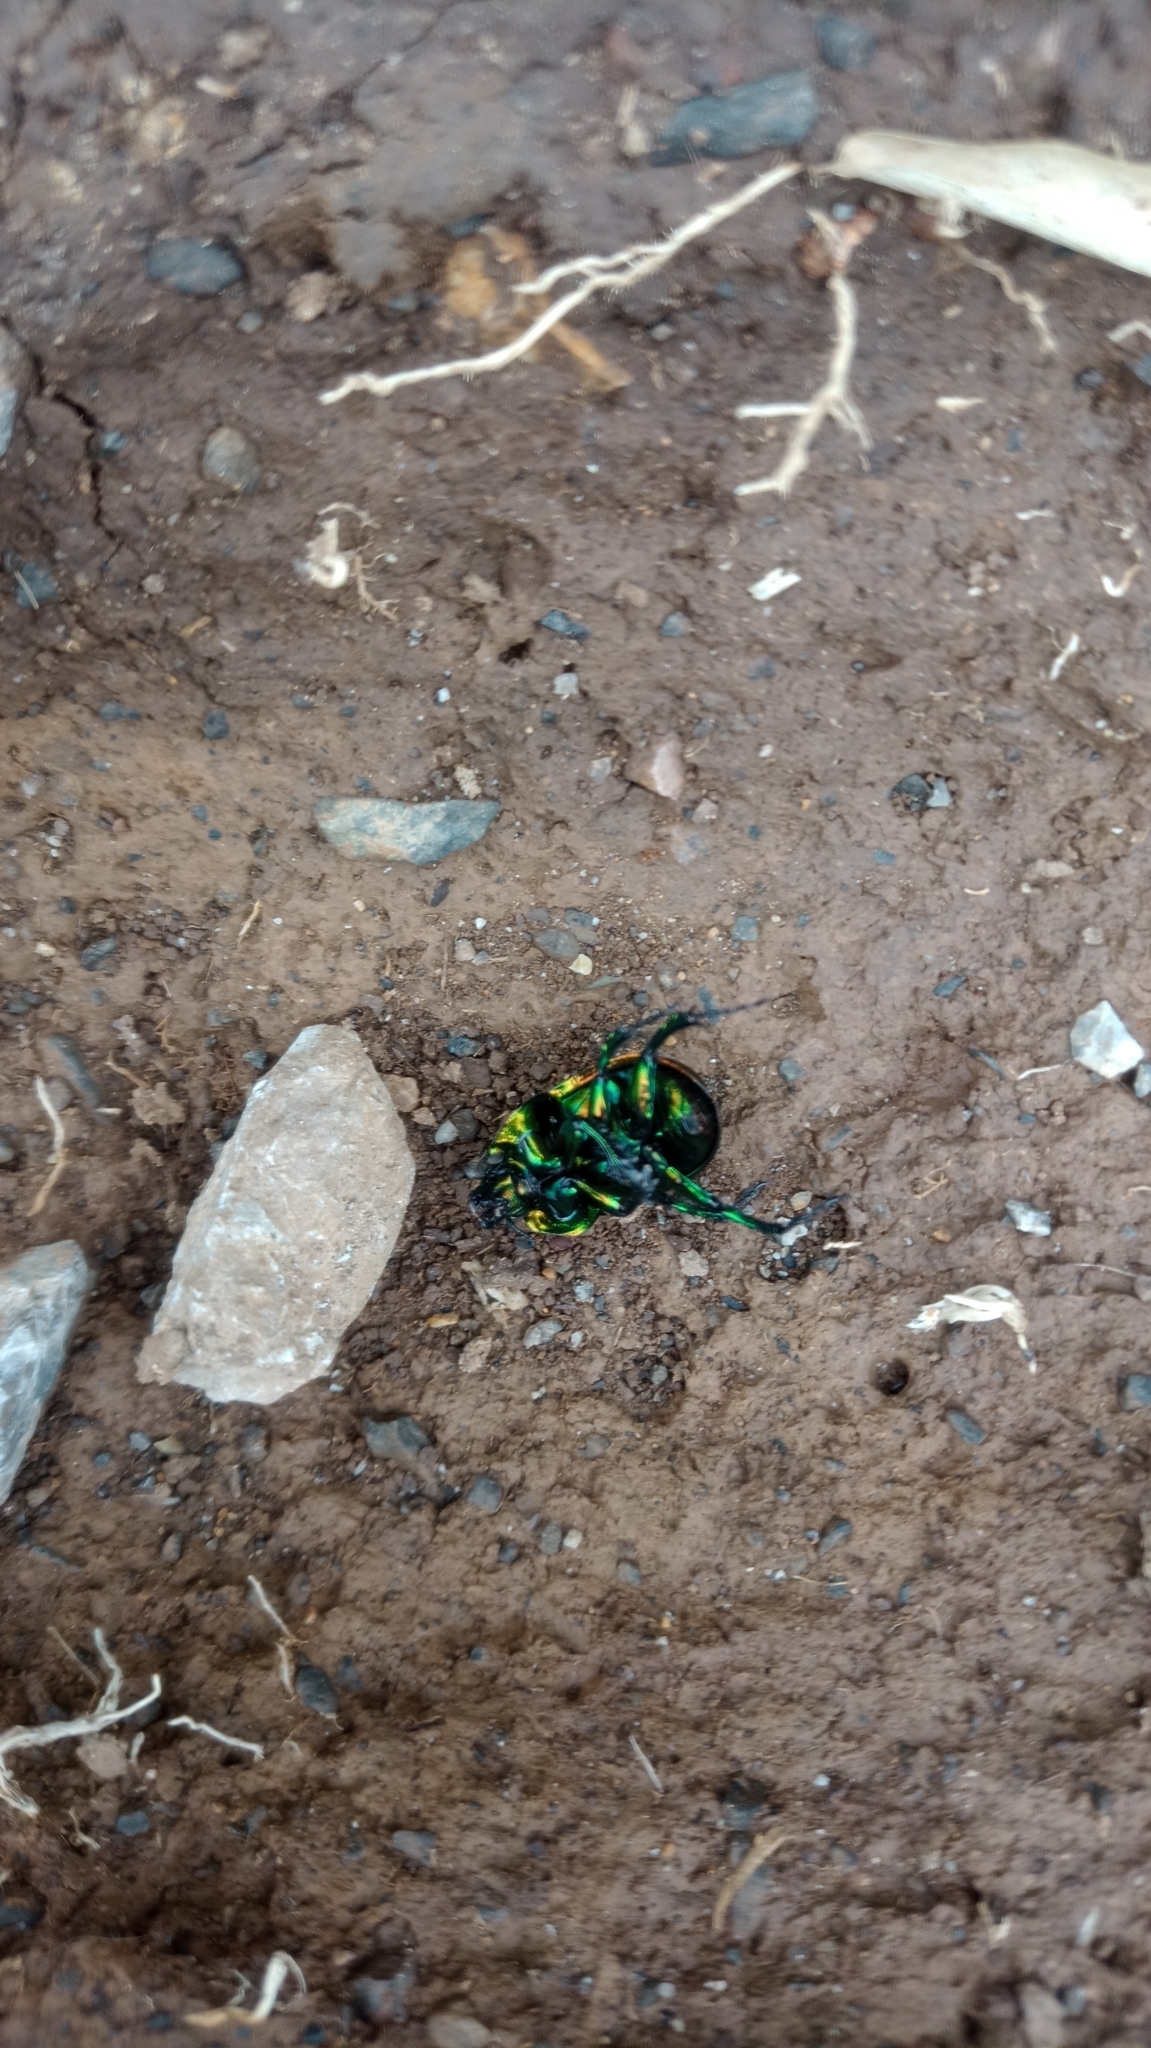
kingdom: Animalia
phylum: Arthropoda
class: Insecta
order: Coleoptera
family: Geotrupidae
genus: Phelotrupes
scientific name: Phelotrupes auratus
